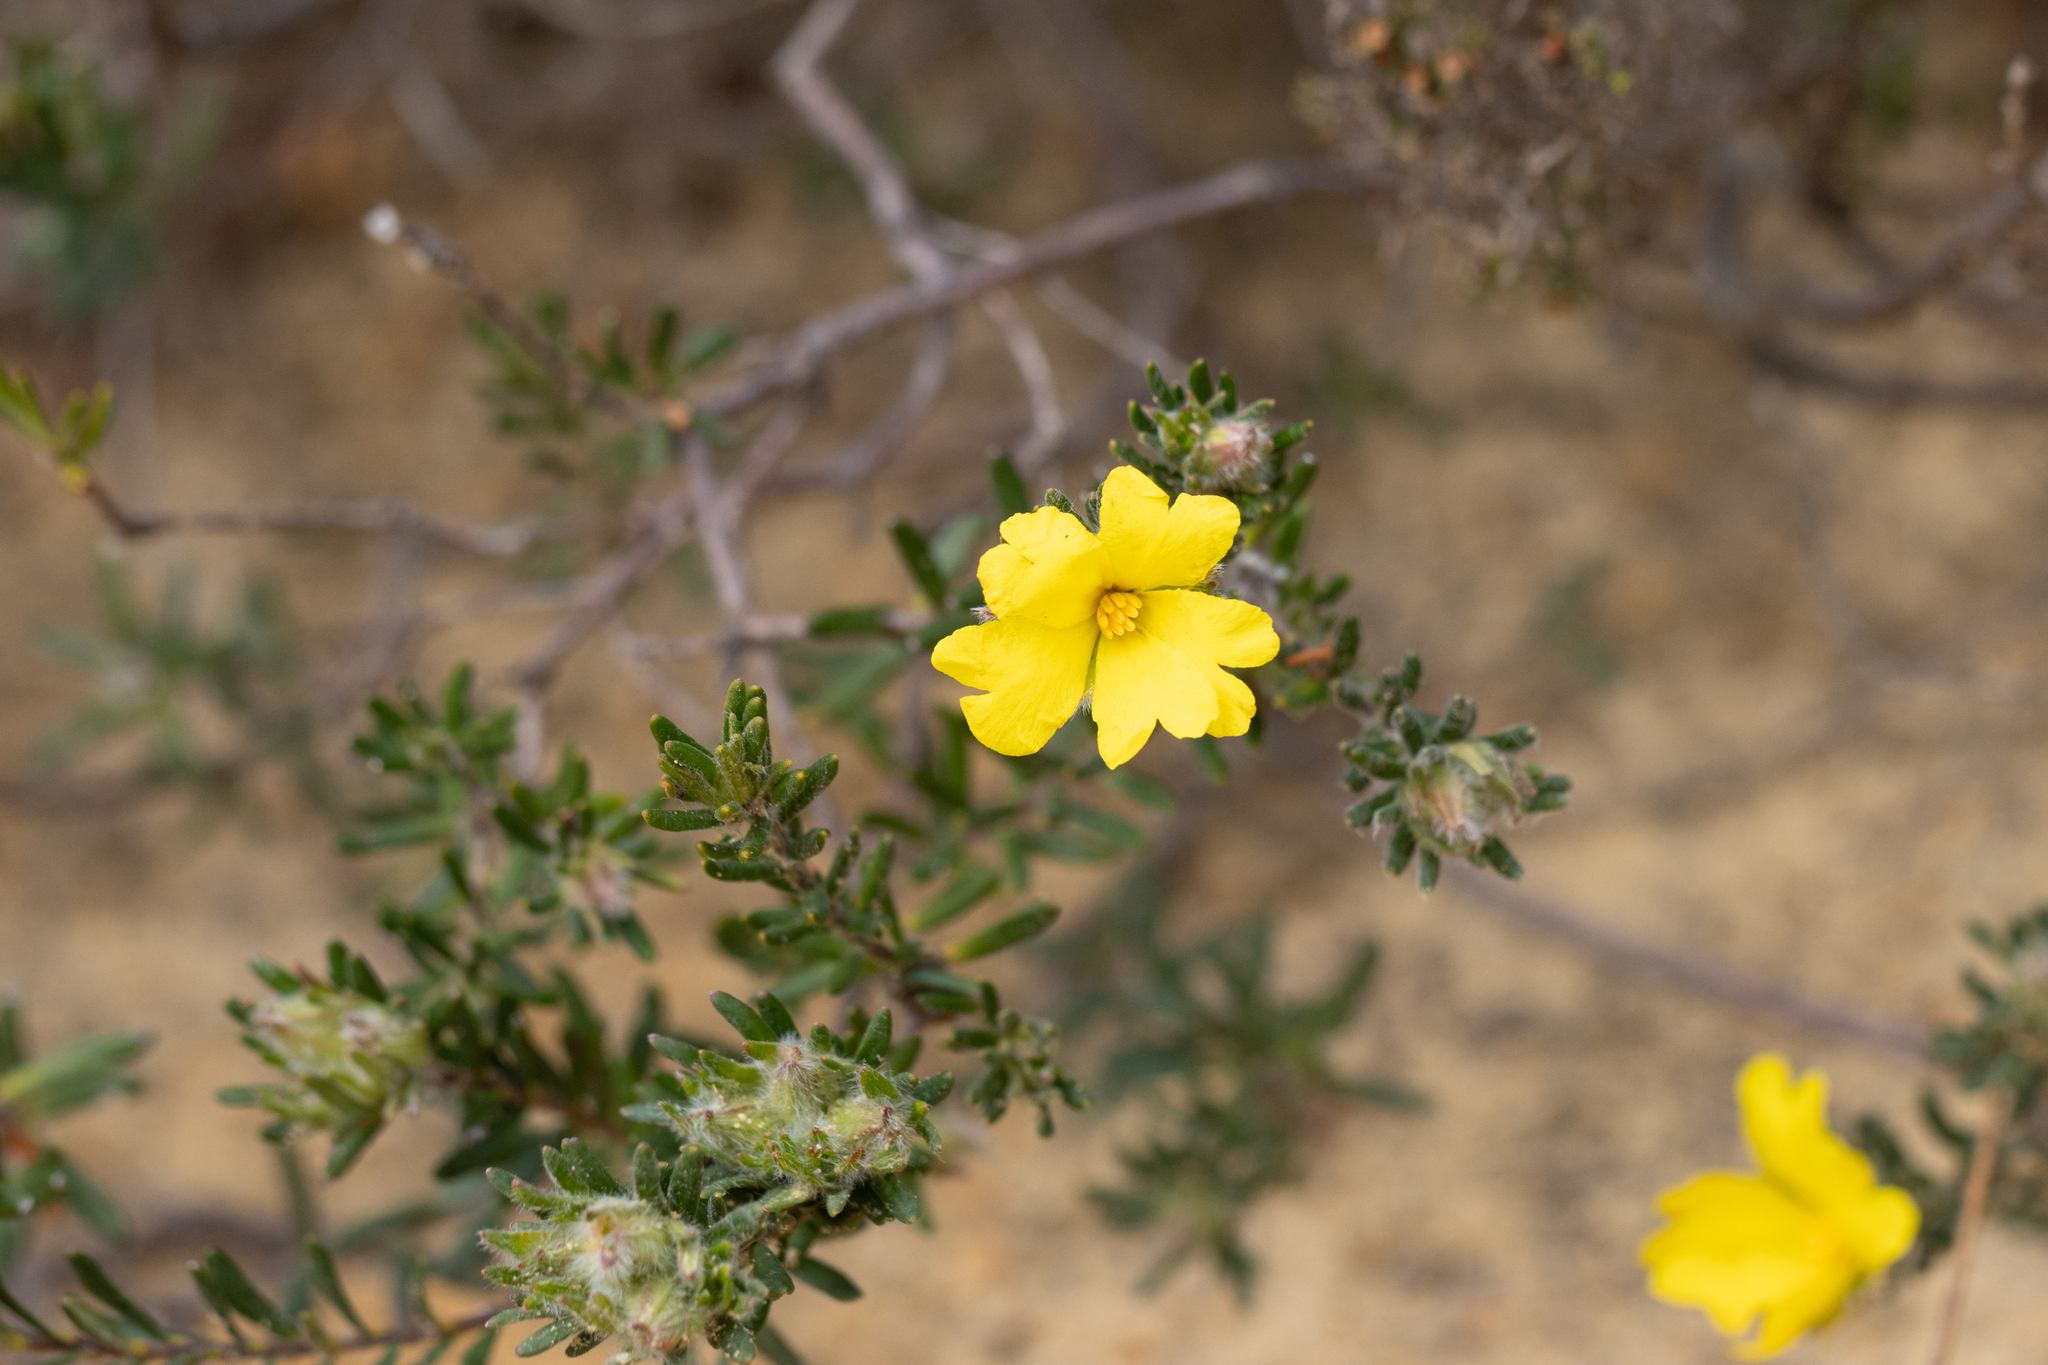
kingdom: Plantae
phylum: Tracheophyta
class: Magnoliopsida
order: Dilleniales
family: Dilleniaceae
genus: Hibbertia
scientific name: Hibbertia villifera
